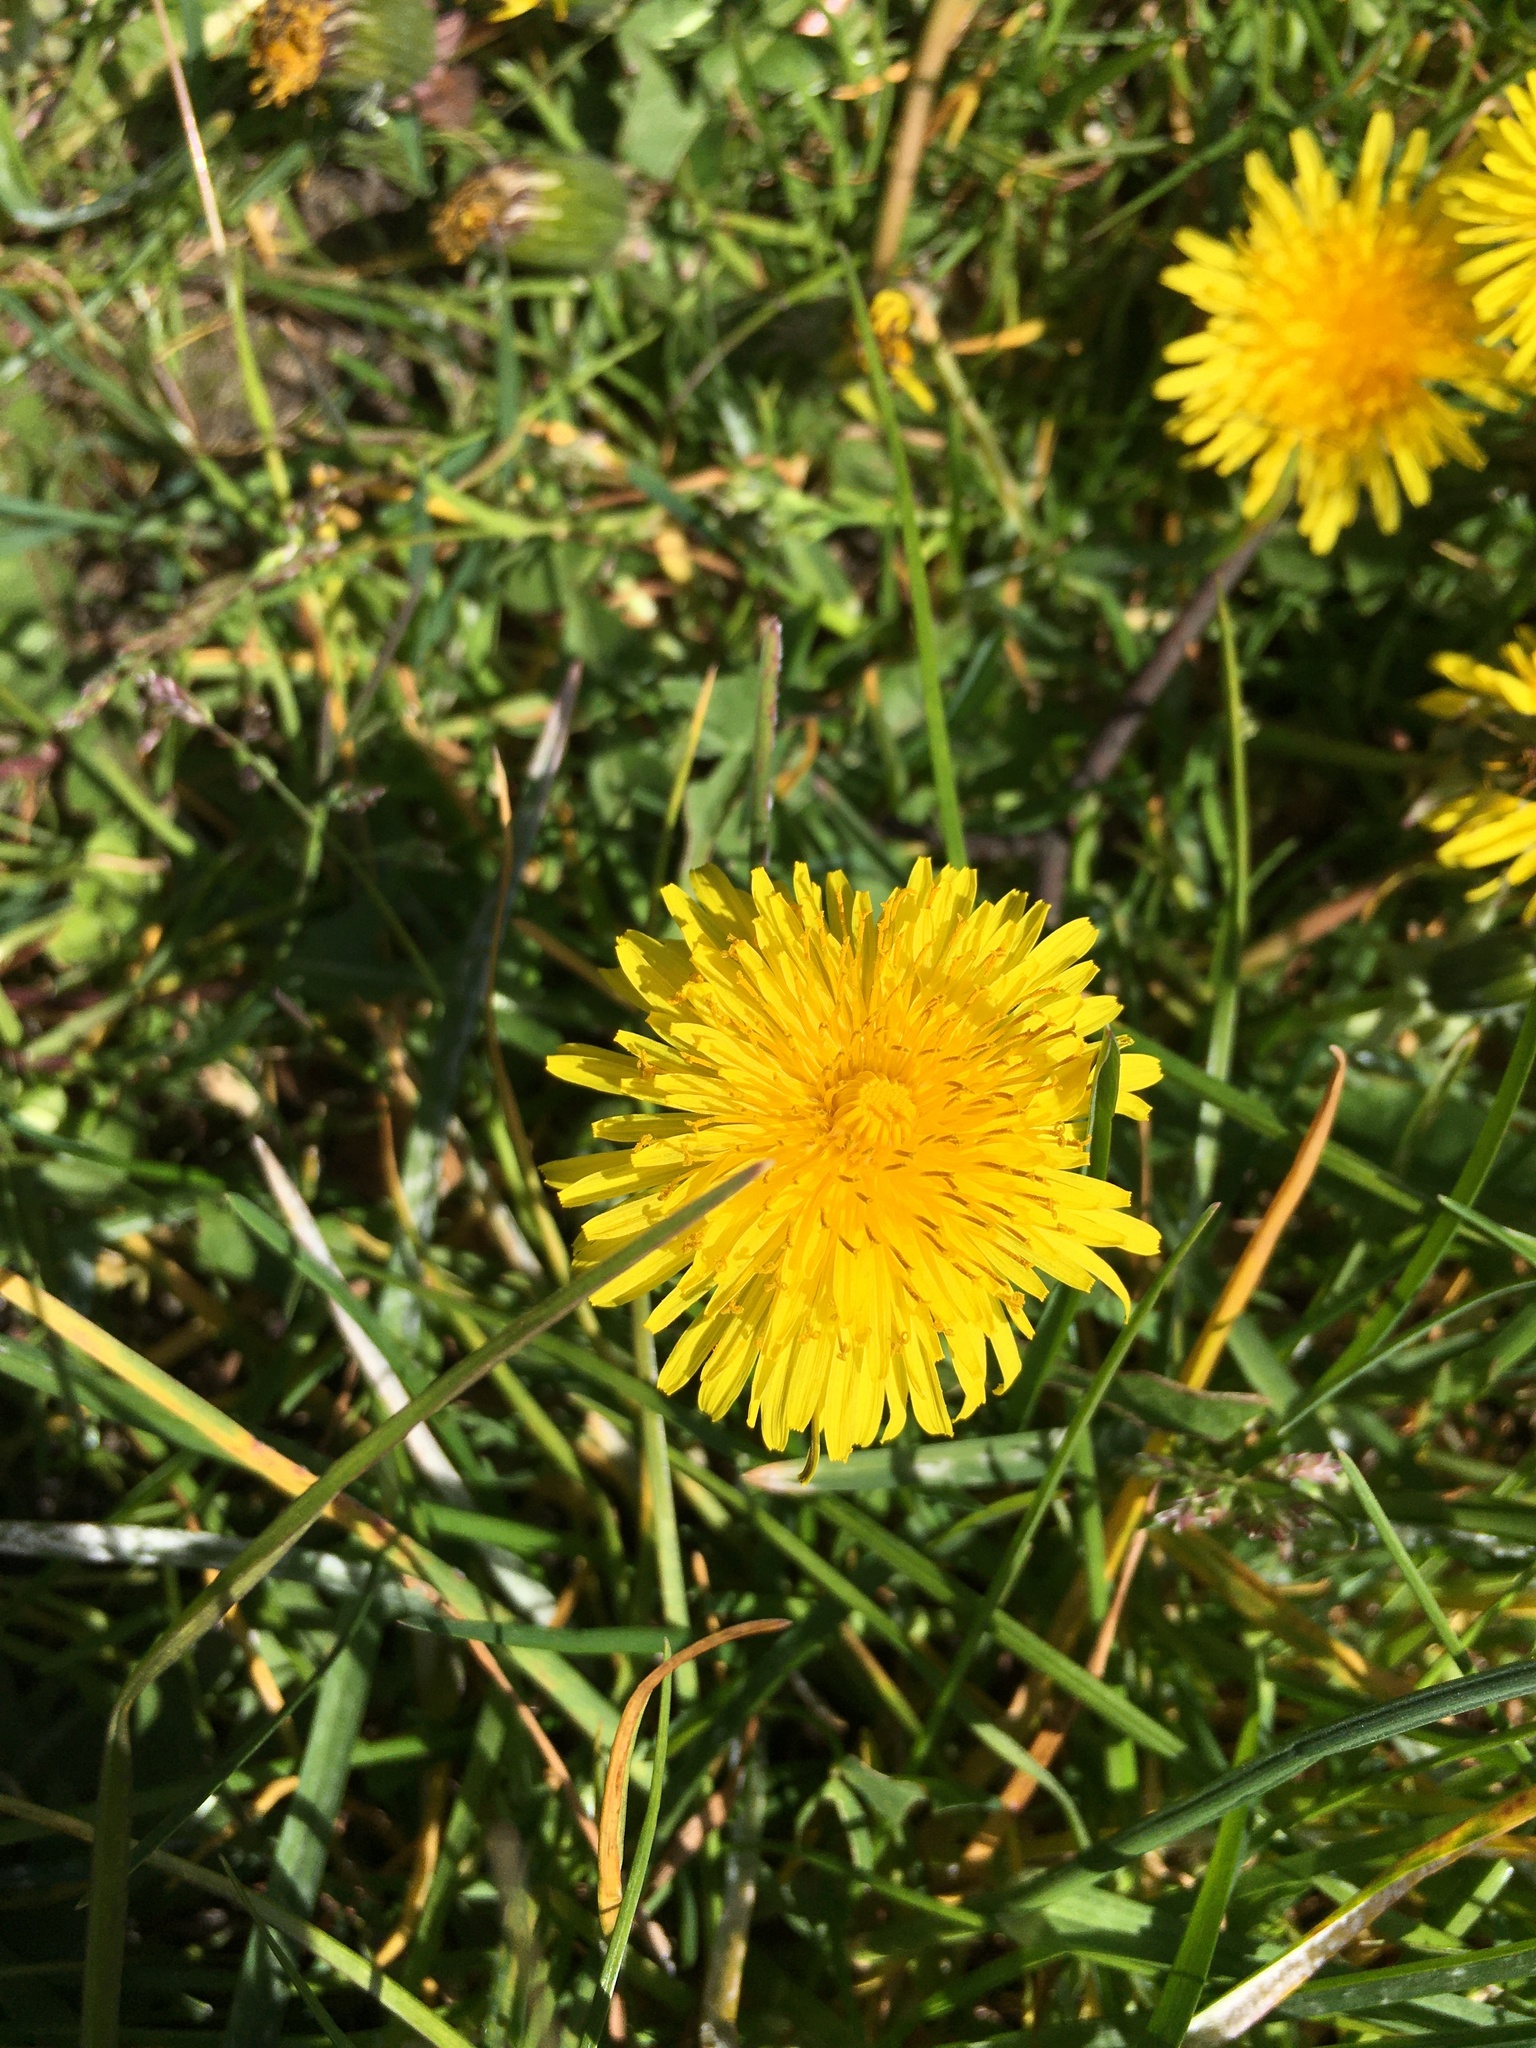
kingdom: Plantae
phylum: Tracheophyta
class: Magnoliopsida
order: Asterales
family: Asteraceae
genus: Taraxacum
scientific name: Taraxacum officinale
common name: Common dandelion
